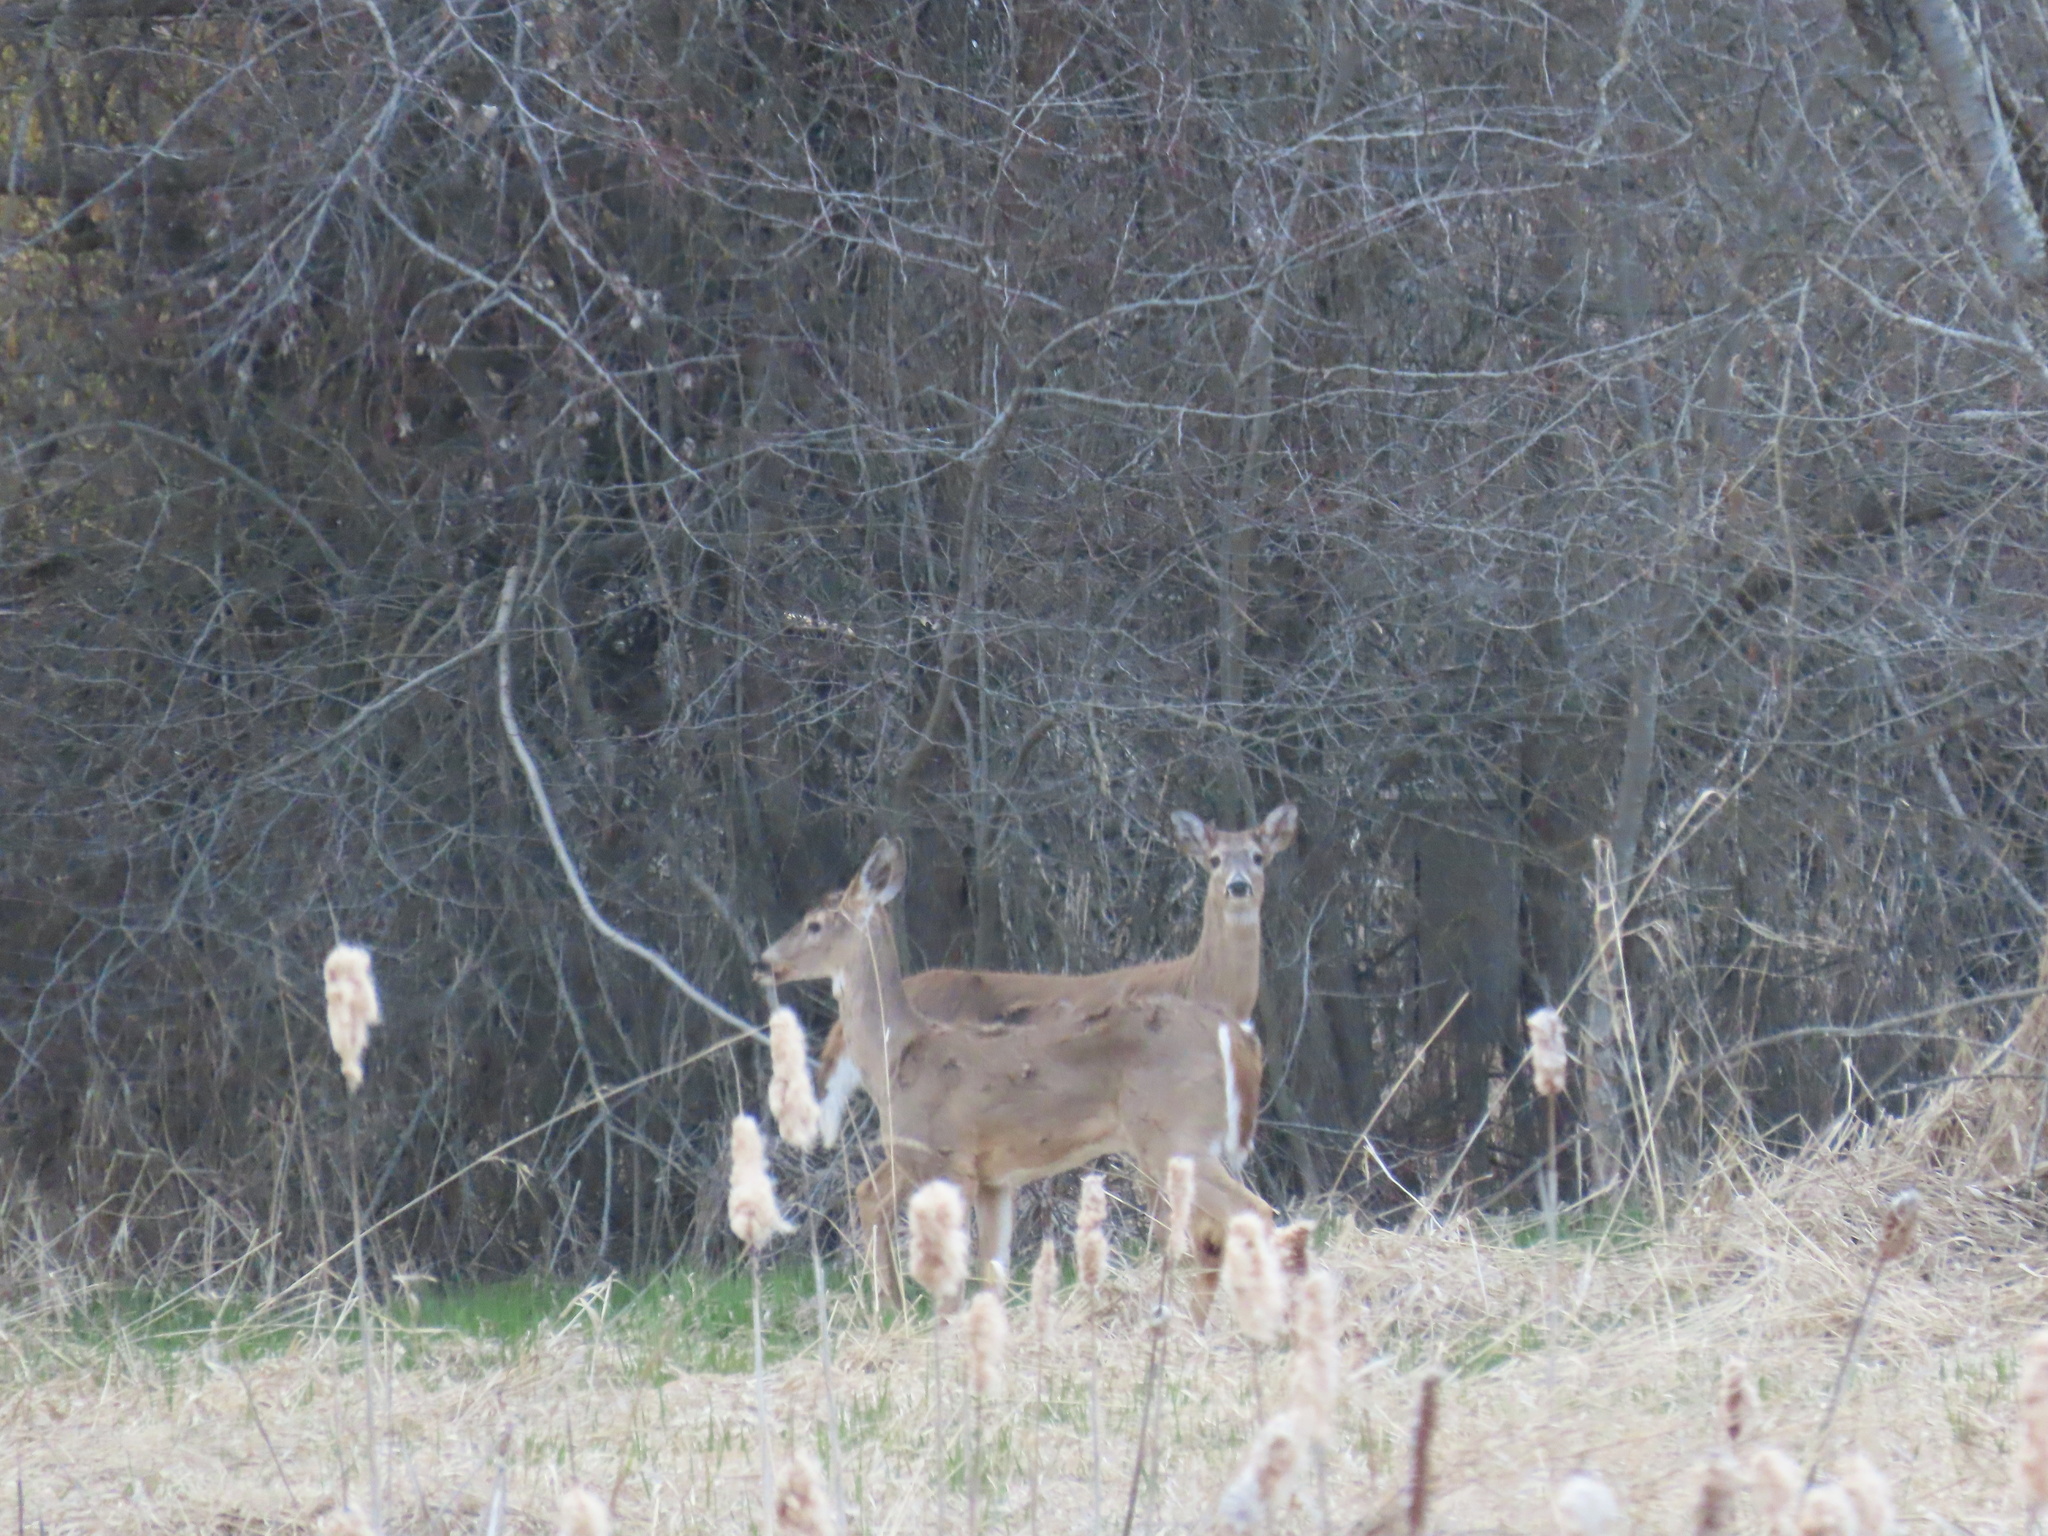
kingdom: Animalia
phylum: Chordata
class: Mammalia
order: Artiodactyla
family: Cervidae
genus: Odocoileus
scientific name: Odocoileus virginianus
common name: White-tailed deer
